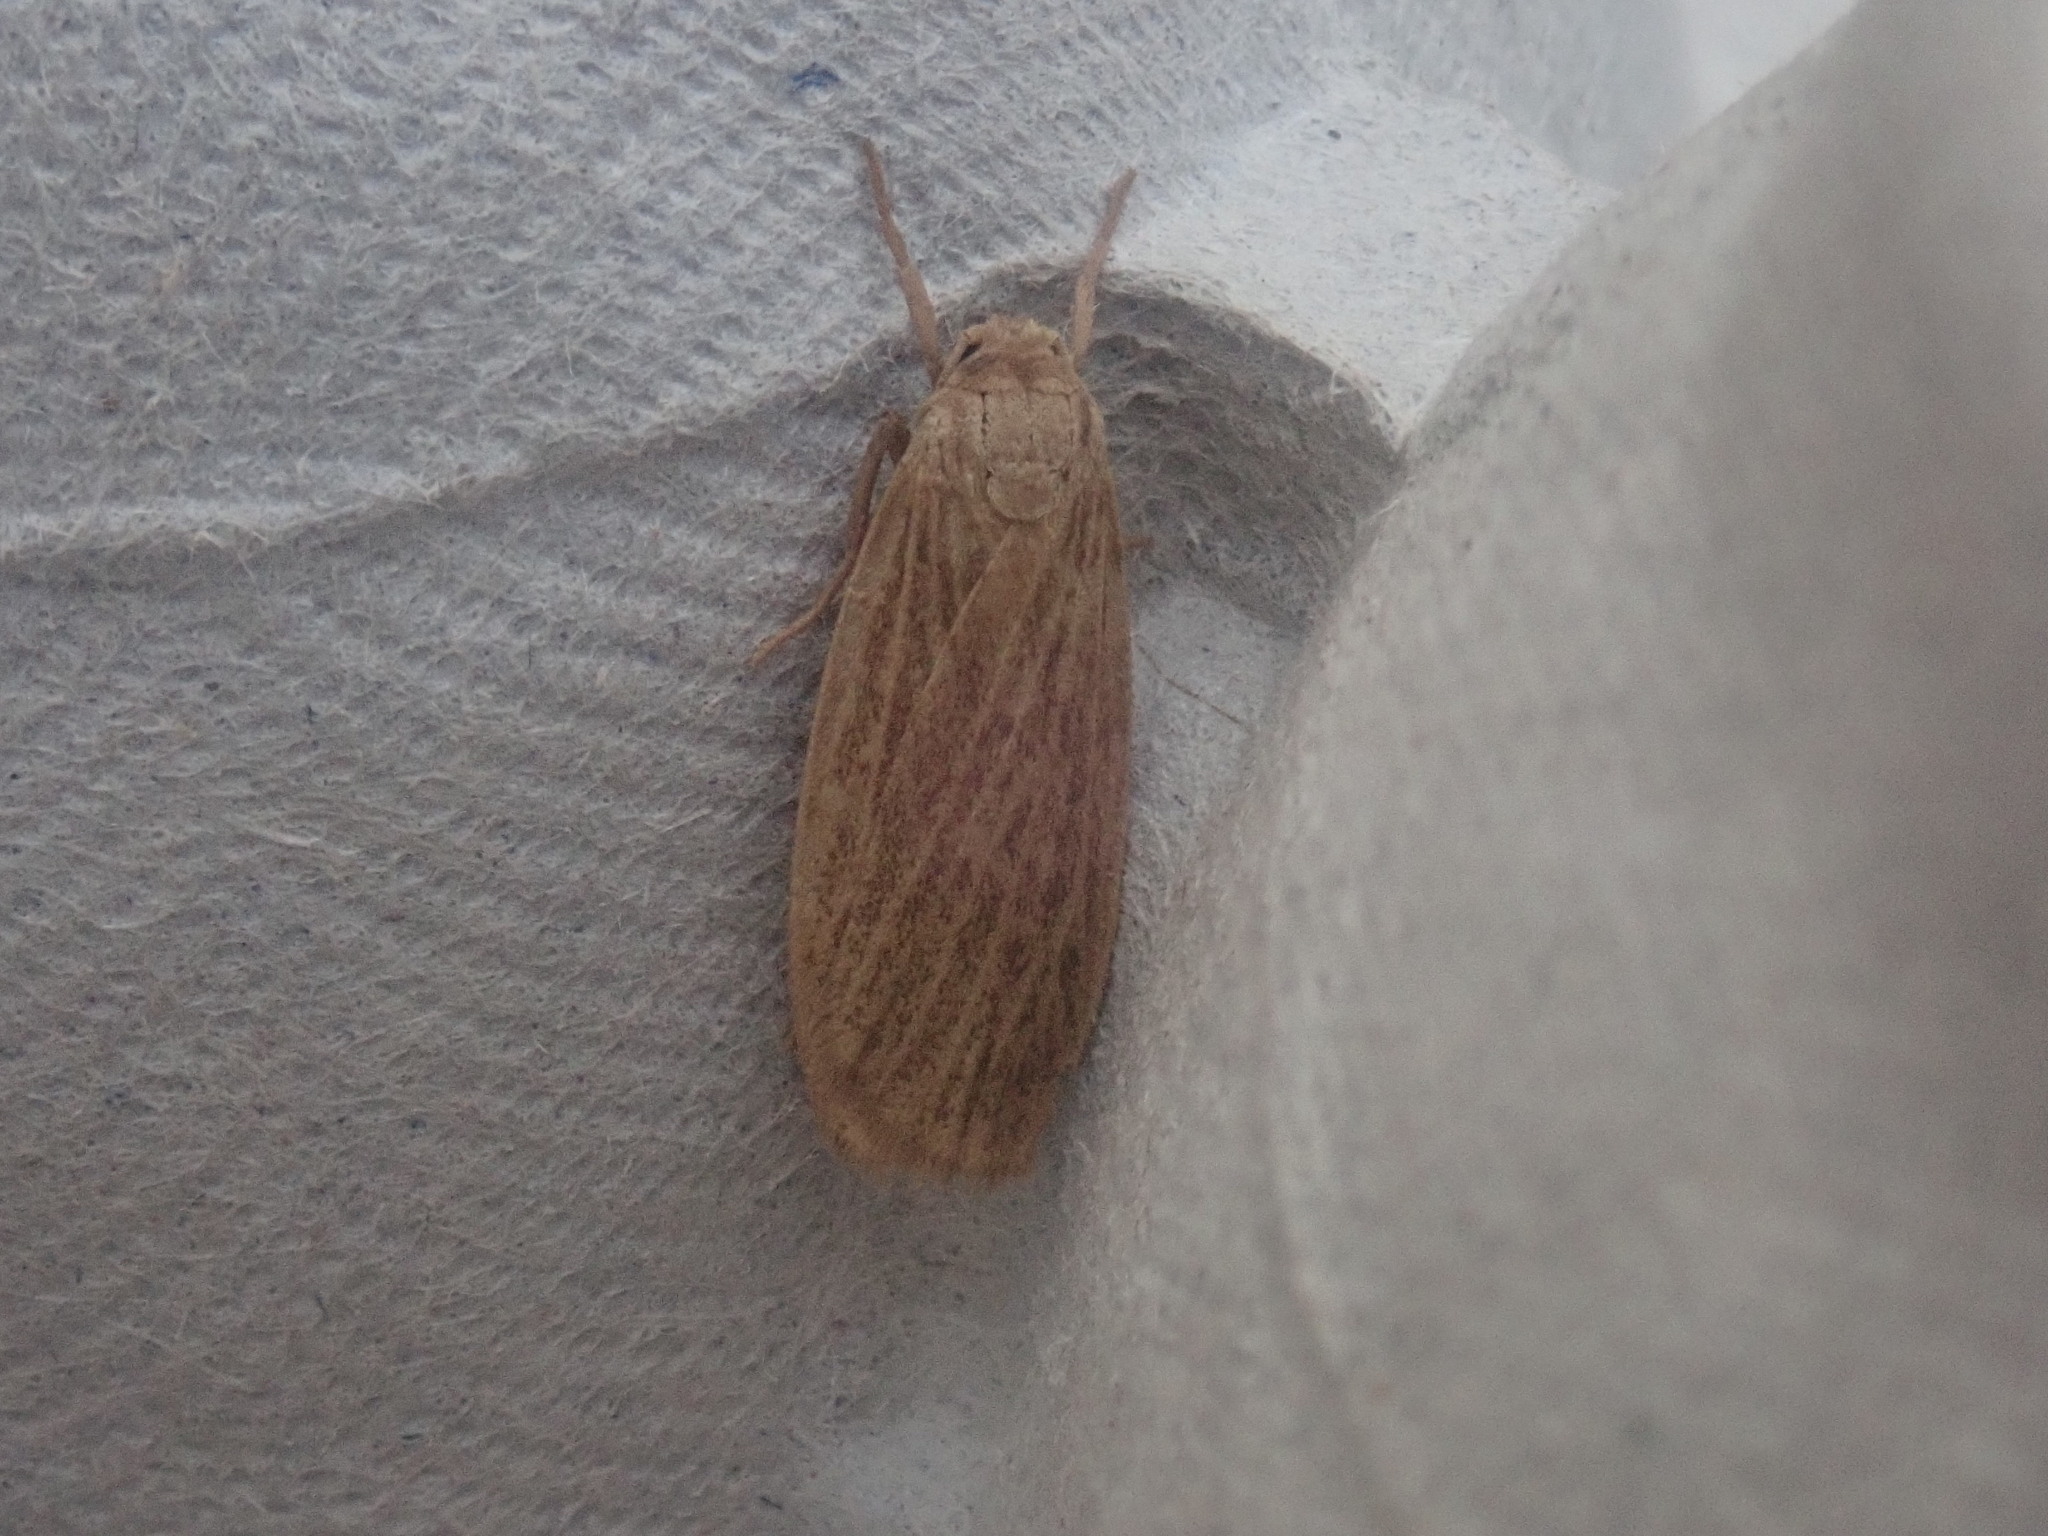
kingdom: Animalia
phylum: Arthropoda
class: Insecta
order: Lepidoptera
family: Erebidae
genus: Crambidia
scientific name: Crambidia pallida
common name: Pale lichen moth
